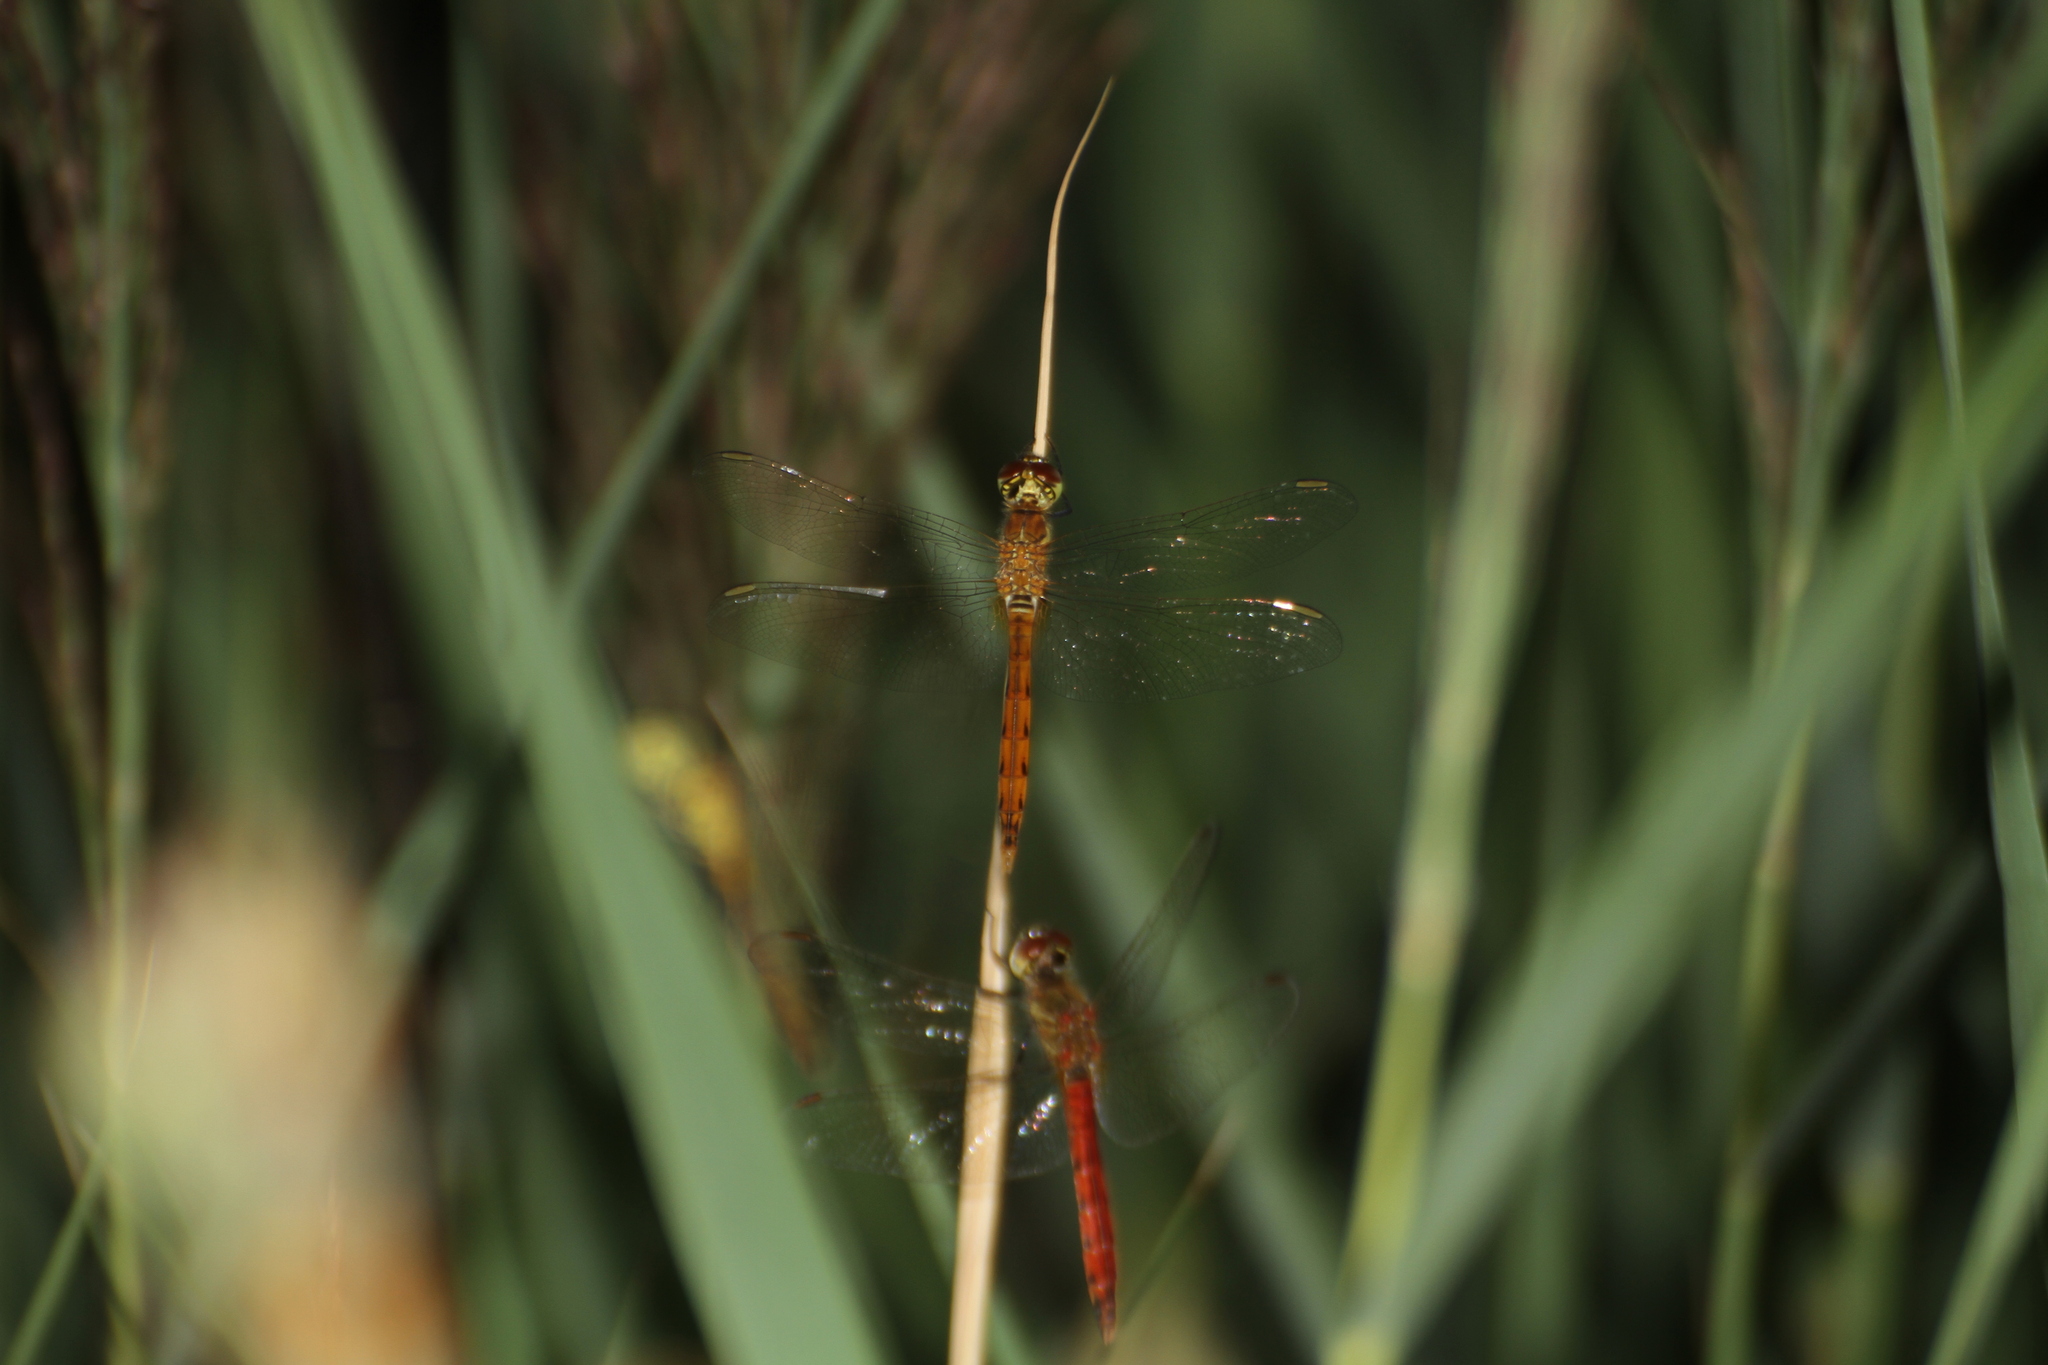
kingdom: Animalia
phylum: Arthropoda
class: Insecta
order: Odonata
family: Libellulidae
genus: Sympetrum
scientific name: Sympetrum depressiusculum
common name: Spotted darter
